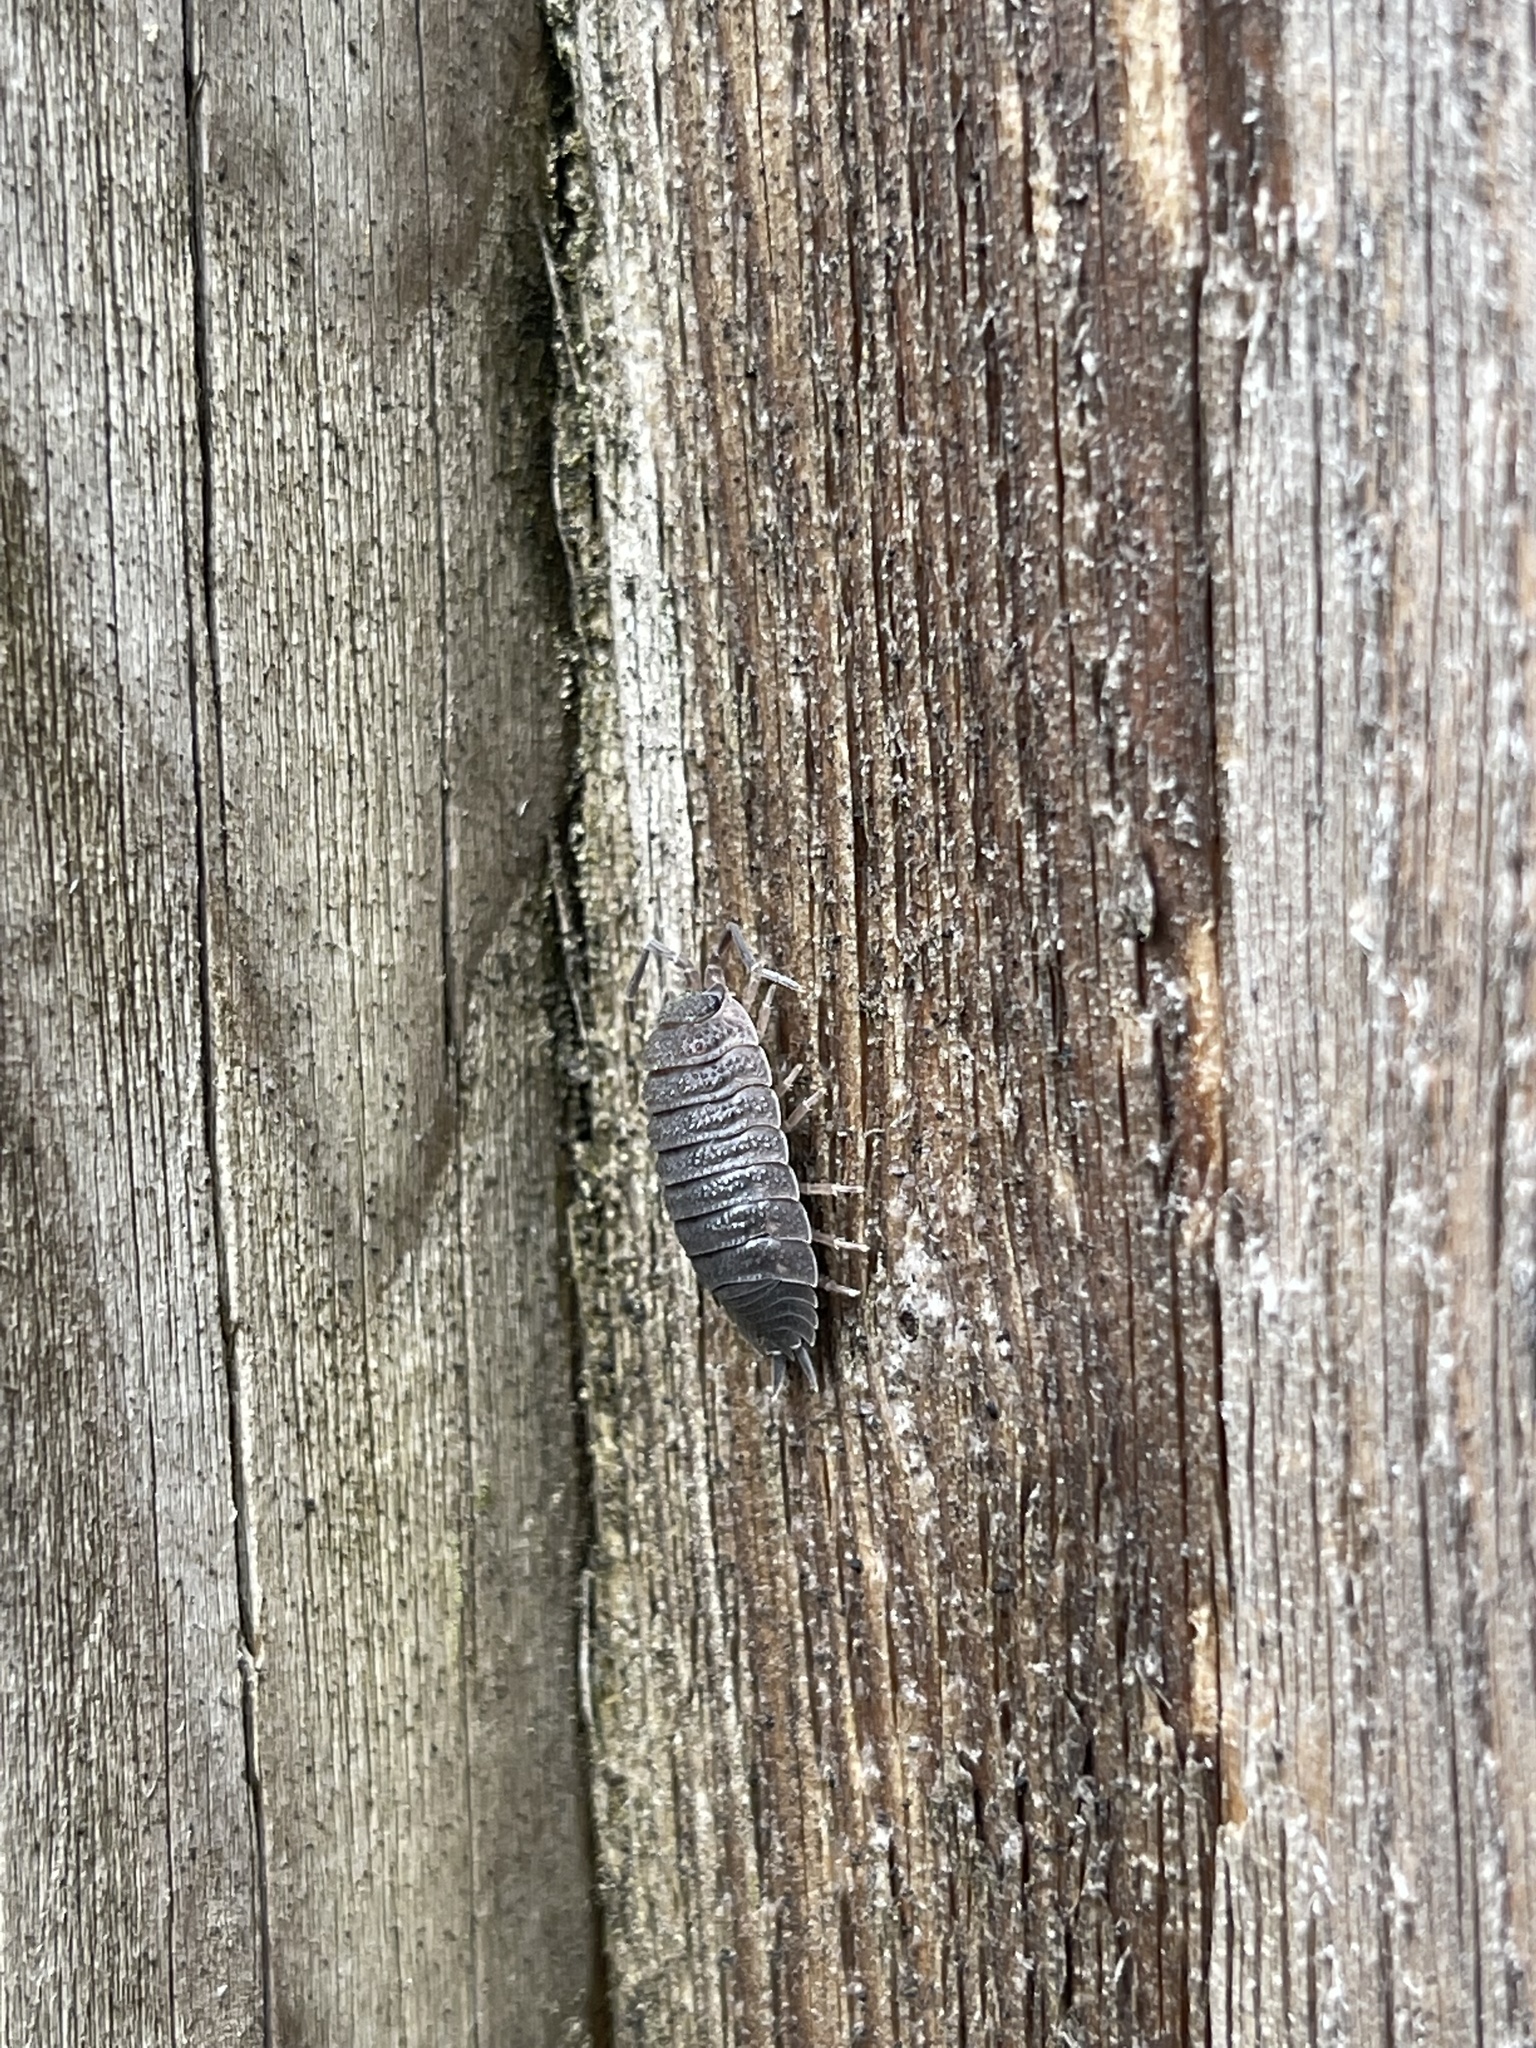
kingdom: Animalia
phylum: Arthropoda
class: Malacostraca
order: Isopoda
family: Porcellionidae
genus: Porcellio
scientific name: Porcellio scaber
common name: Common rough woodlouse
